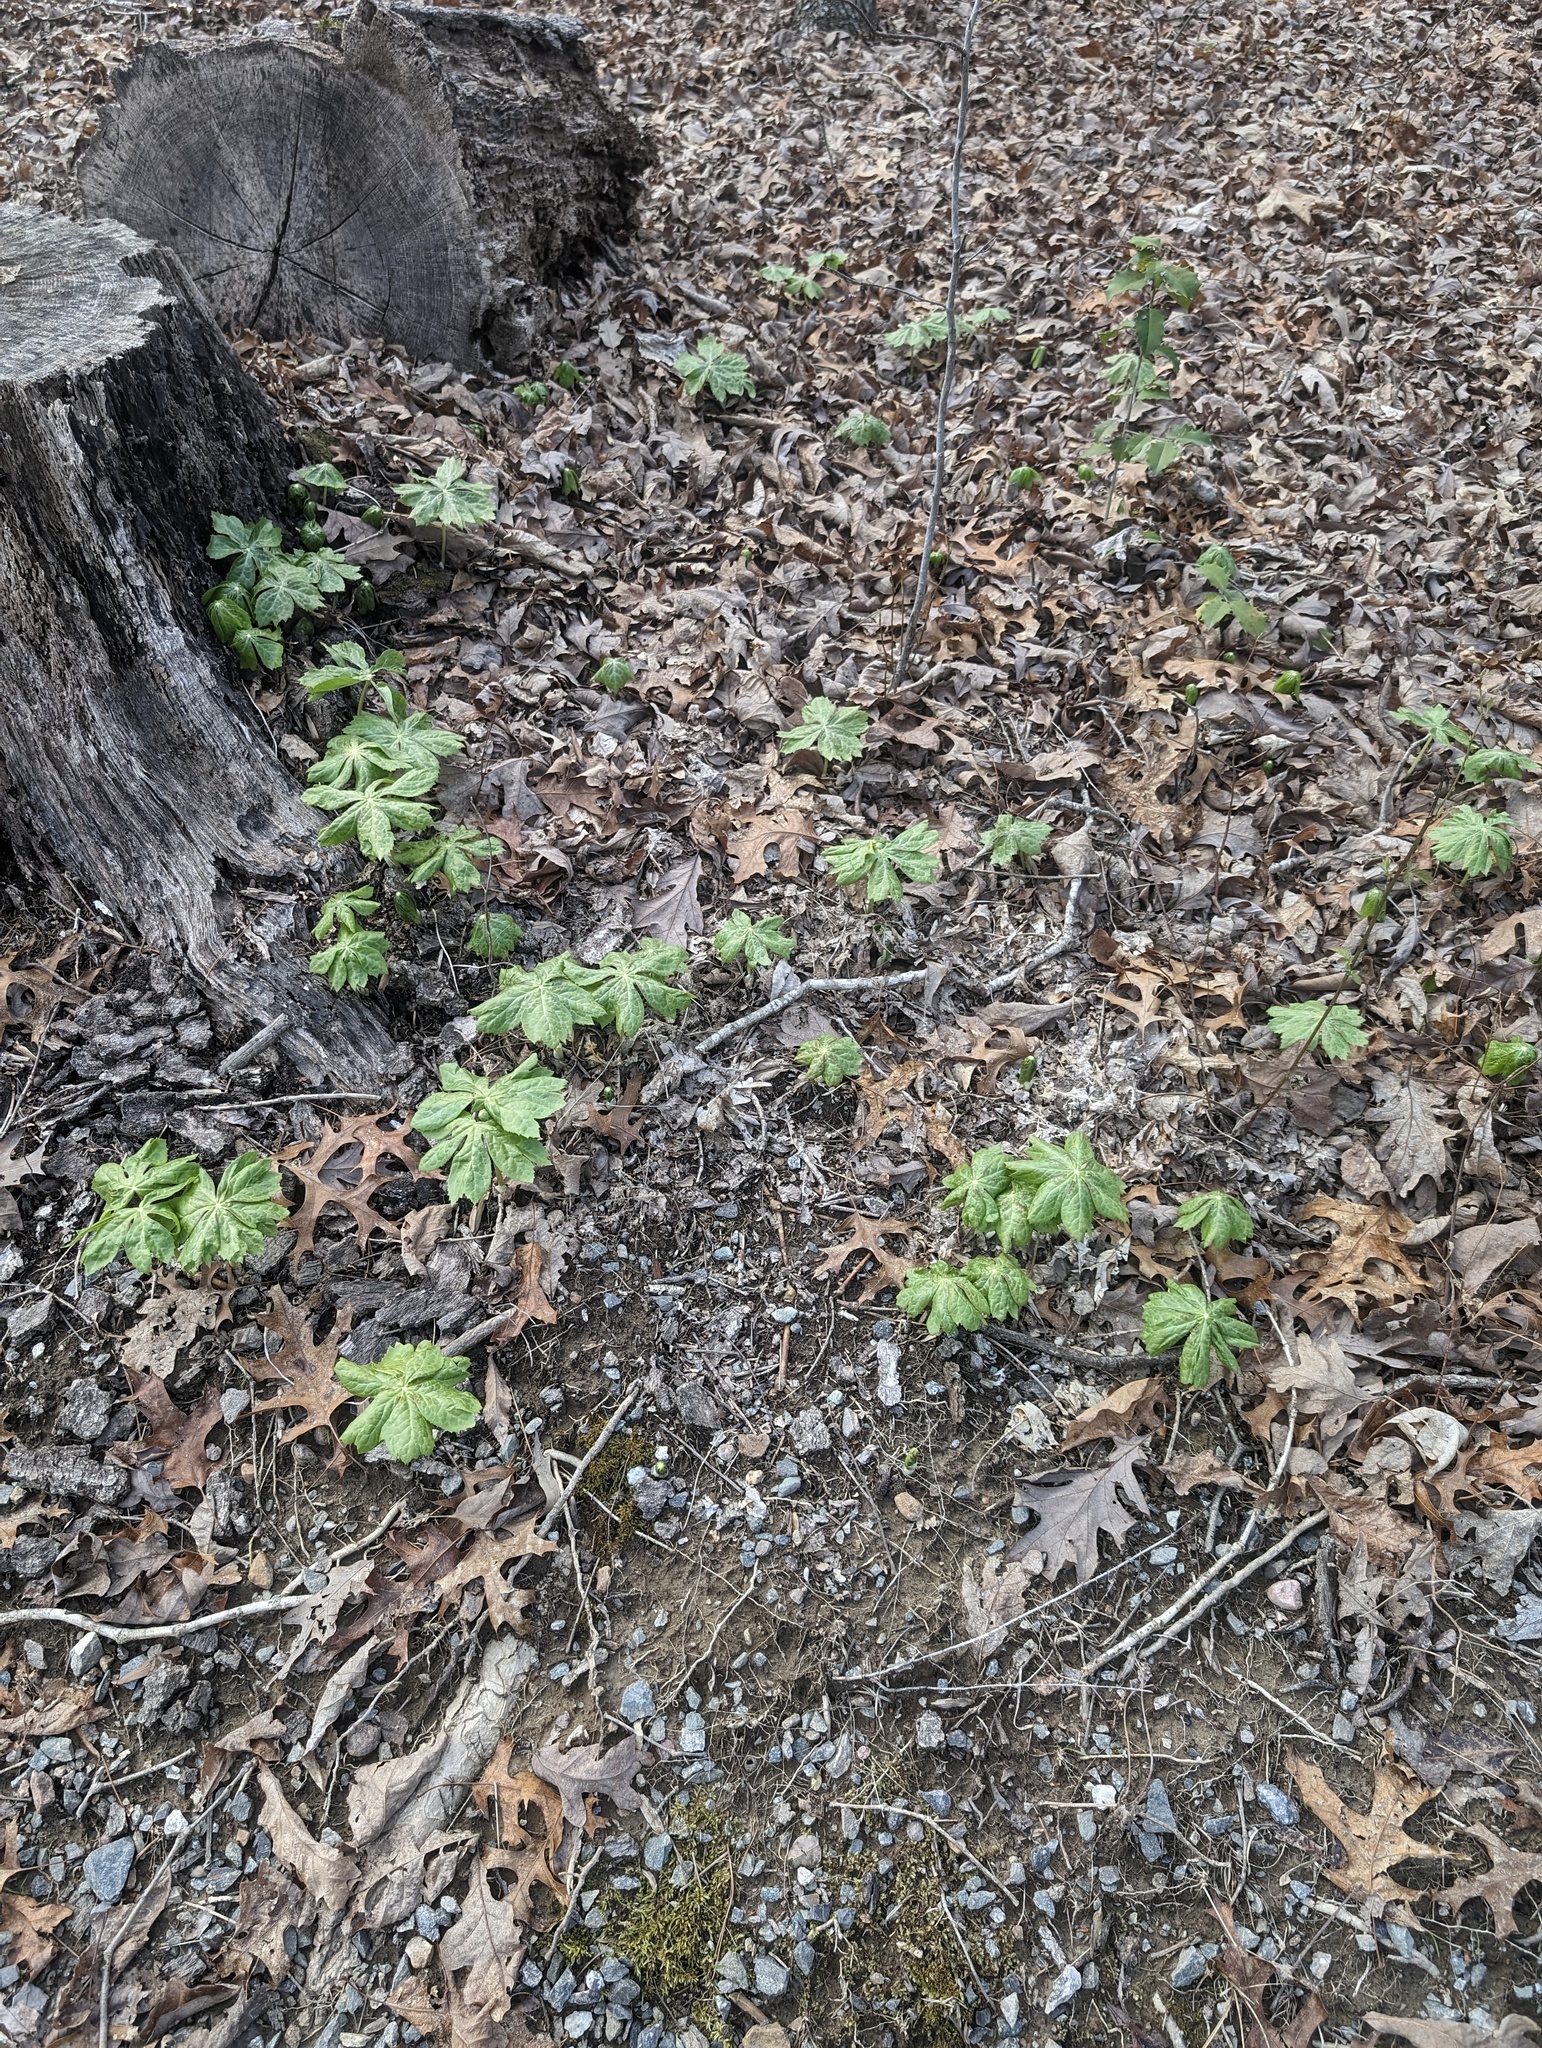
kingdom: Plantae
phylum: Tracheophyta
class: Magnoliopsida
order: Ranunculales
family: Berberidaceae
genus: Podophyllum
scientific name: Podophyllum peltatum
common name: Wild mandrake
